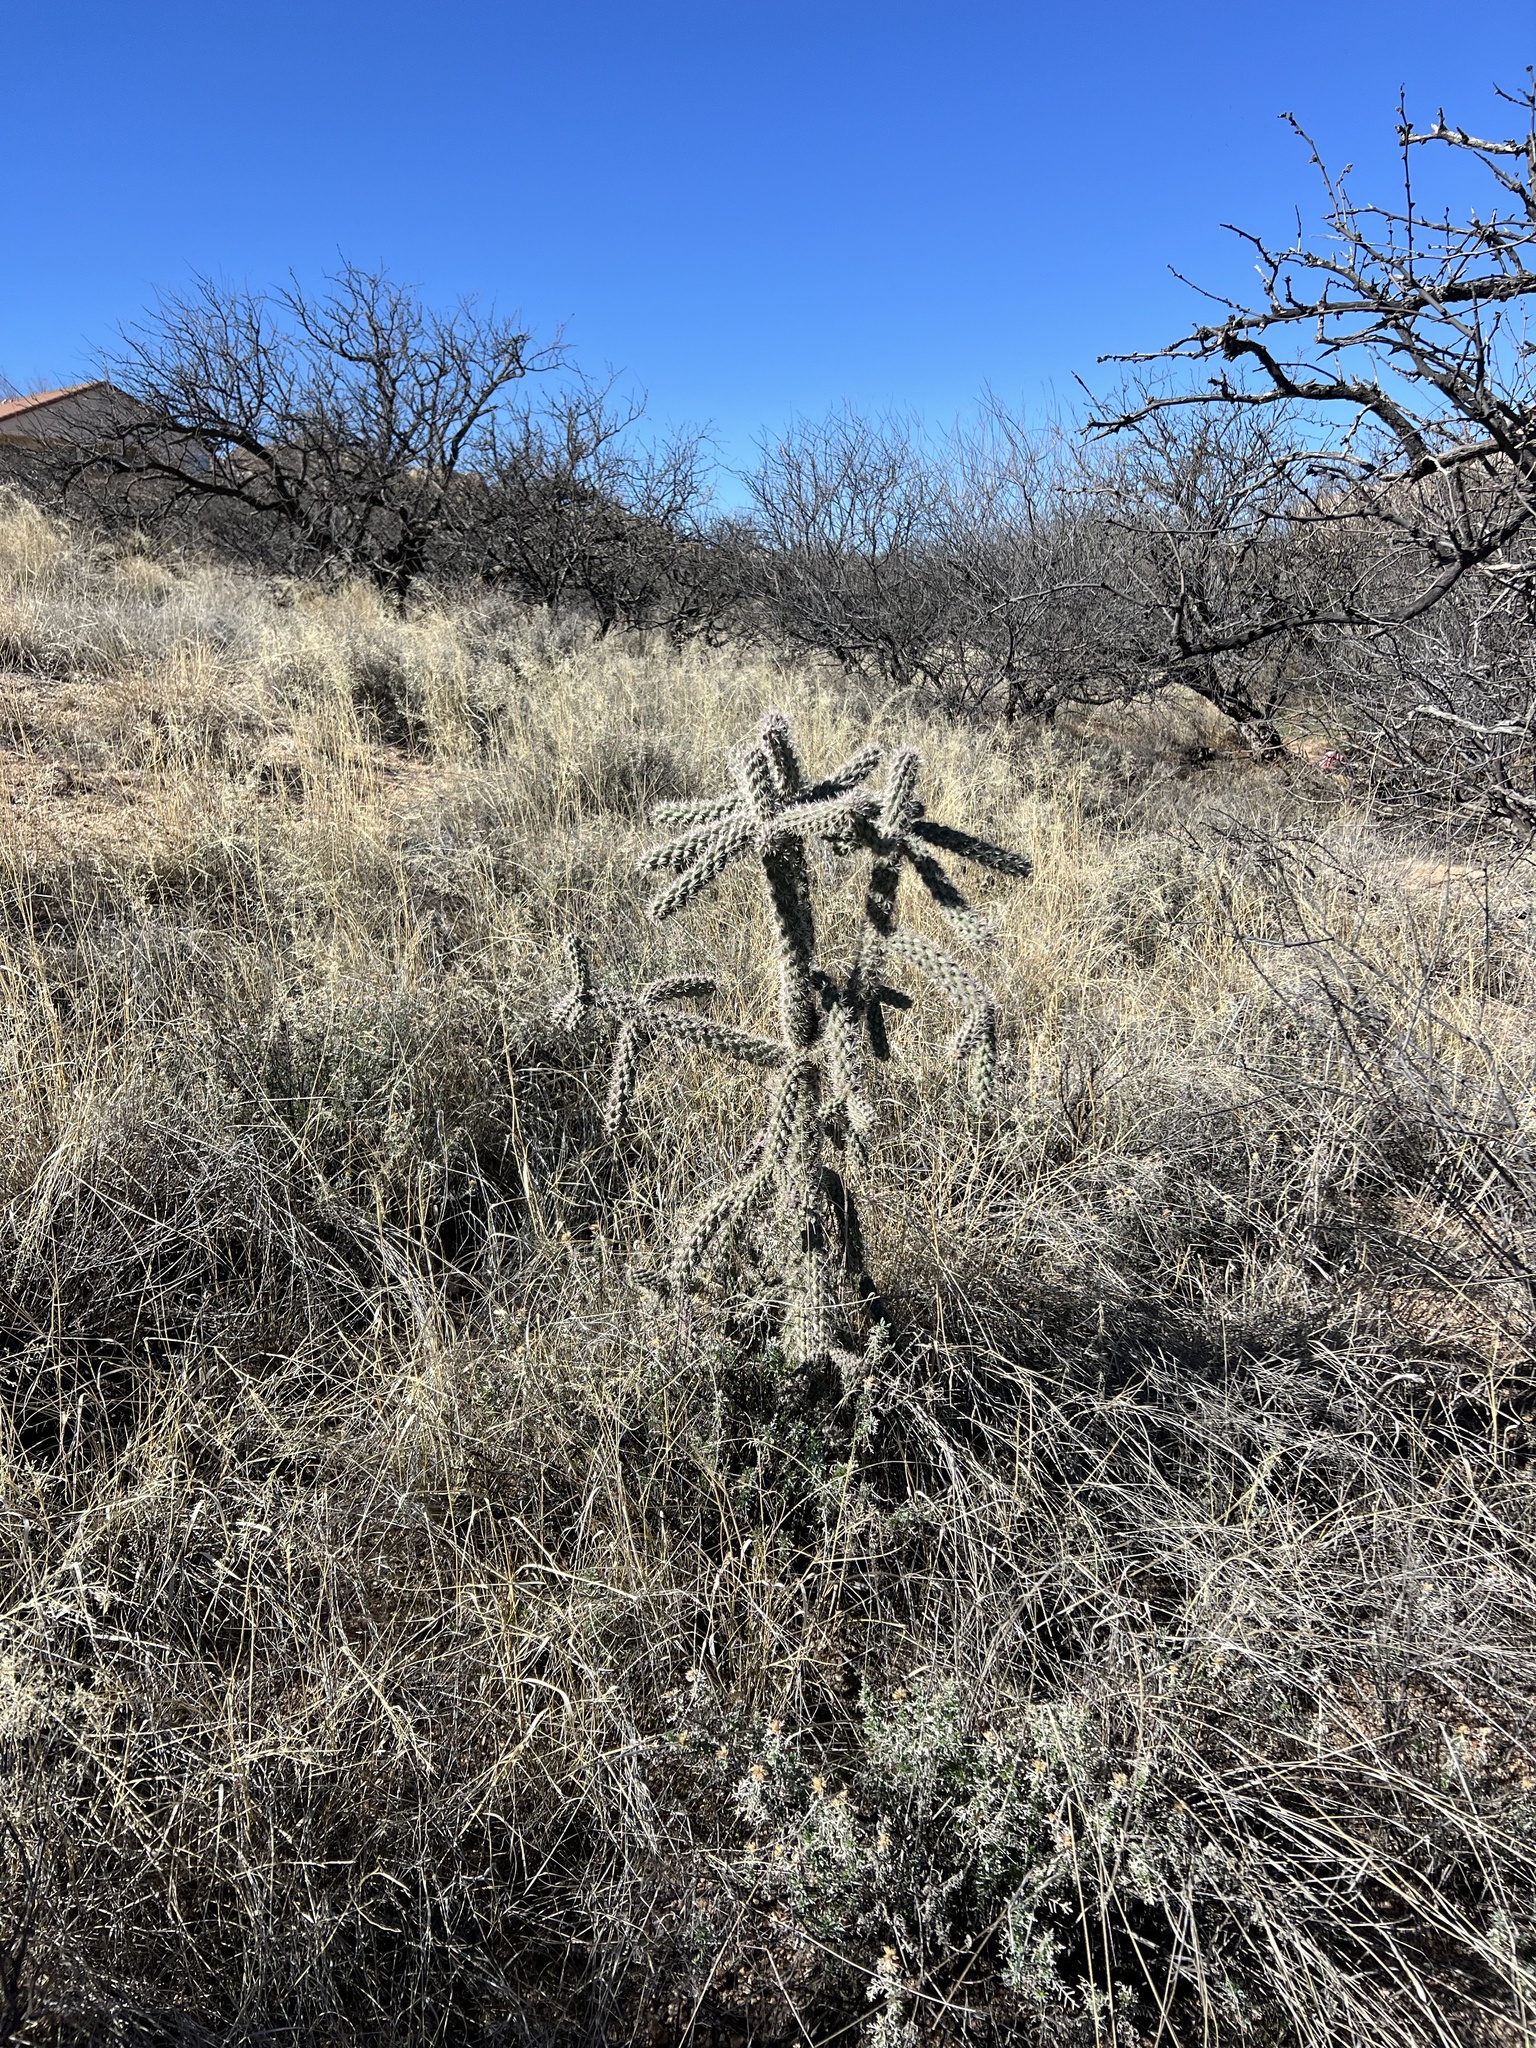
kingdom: Plantae
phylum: Tracheophyta
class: Magnoliopsida
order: Caryophyllales
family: Cactaceae
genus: Cylindropuntia
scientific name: Cylindropuntia imbricata
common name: Candelabrum cactus
